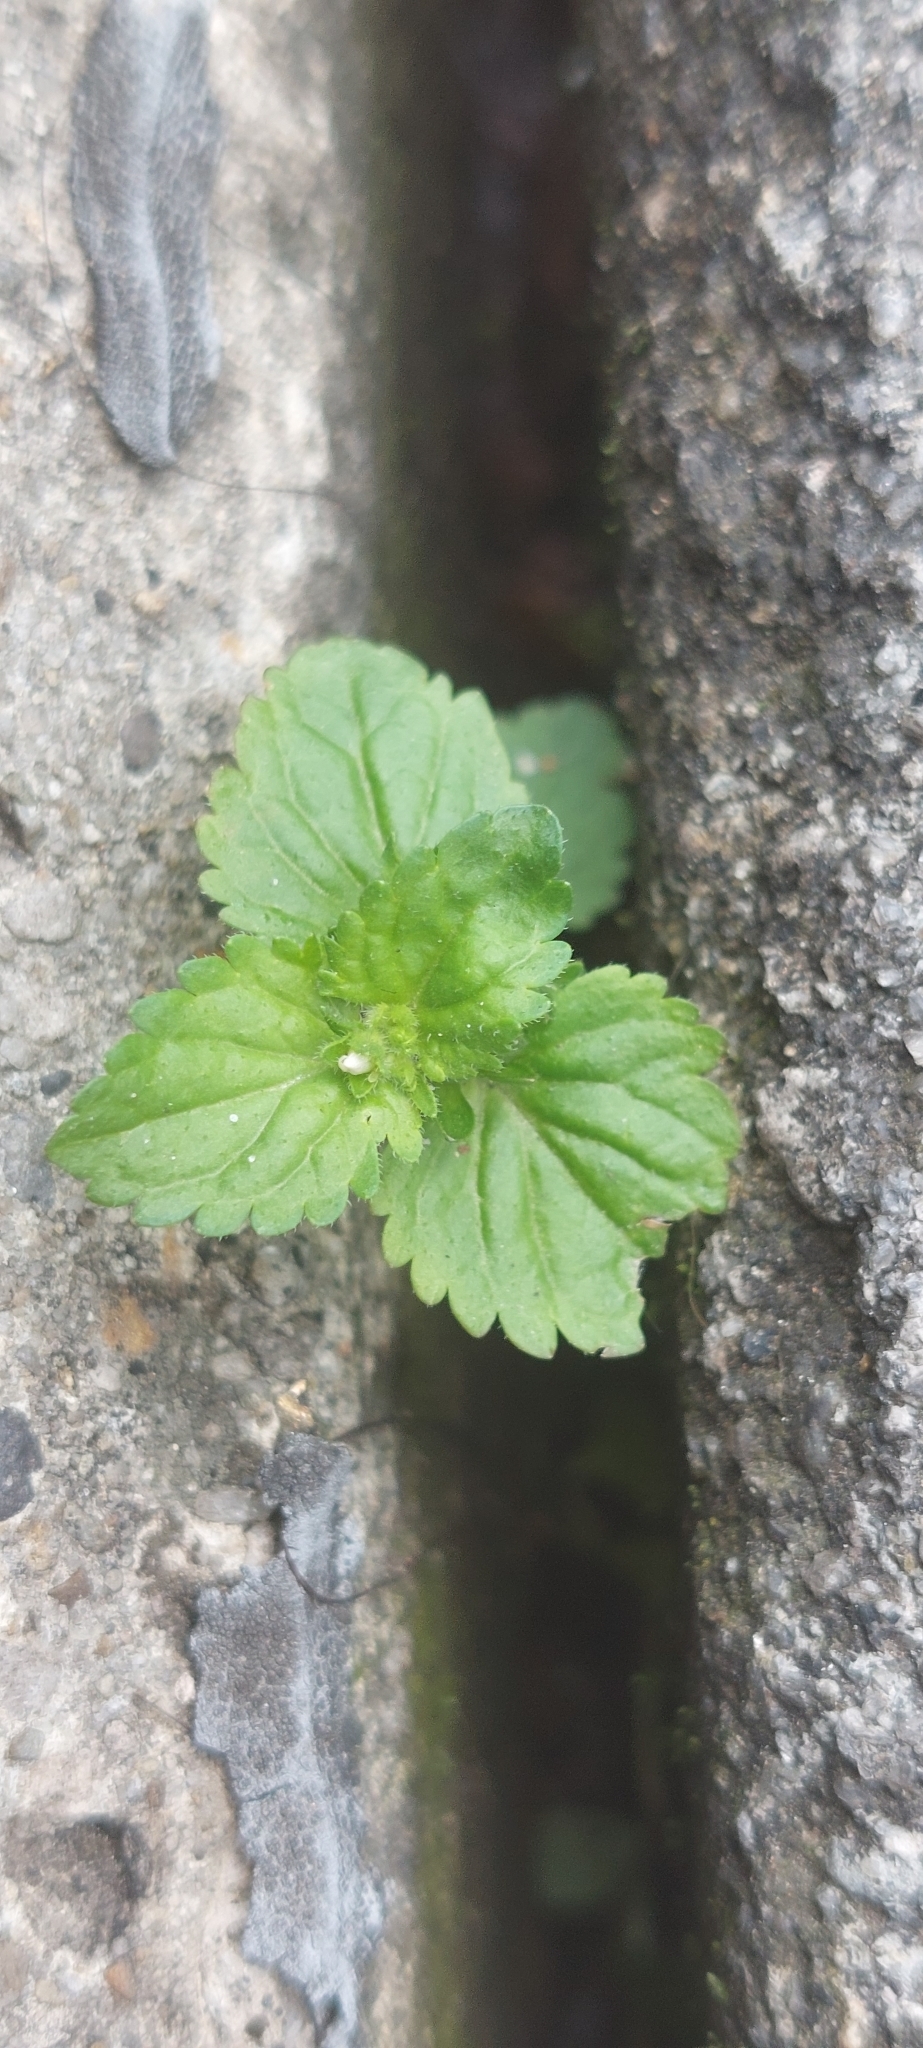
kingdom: Plantae
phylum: Tracheophyta
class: Magnoliopsida
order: Lamiales
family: Plantaginaceae
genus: Veronica
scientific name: Veronica javanica
